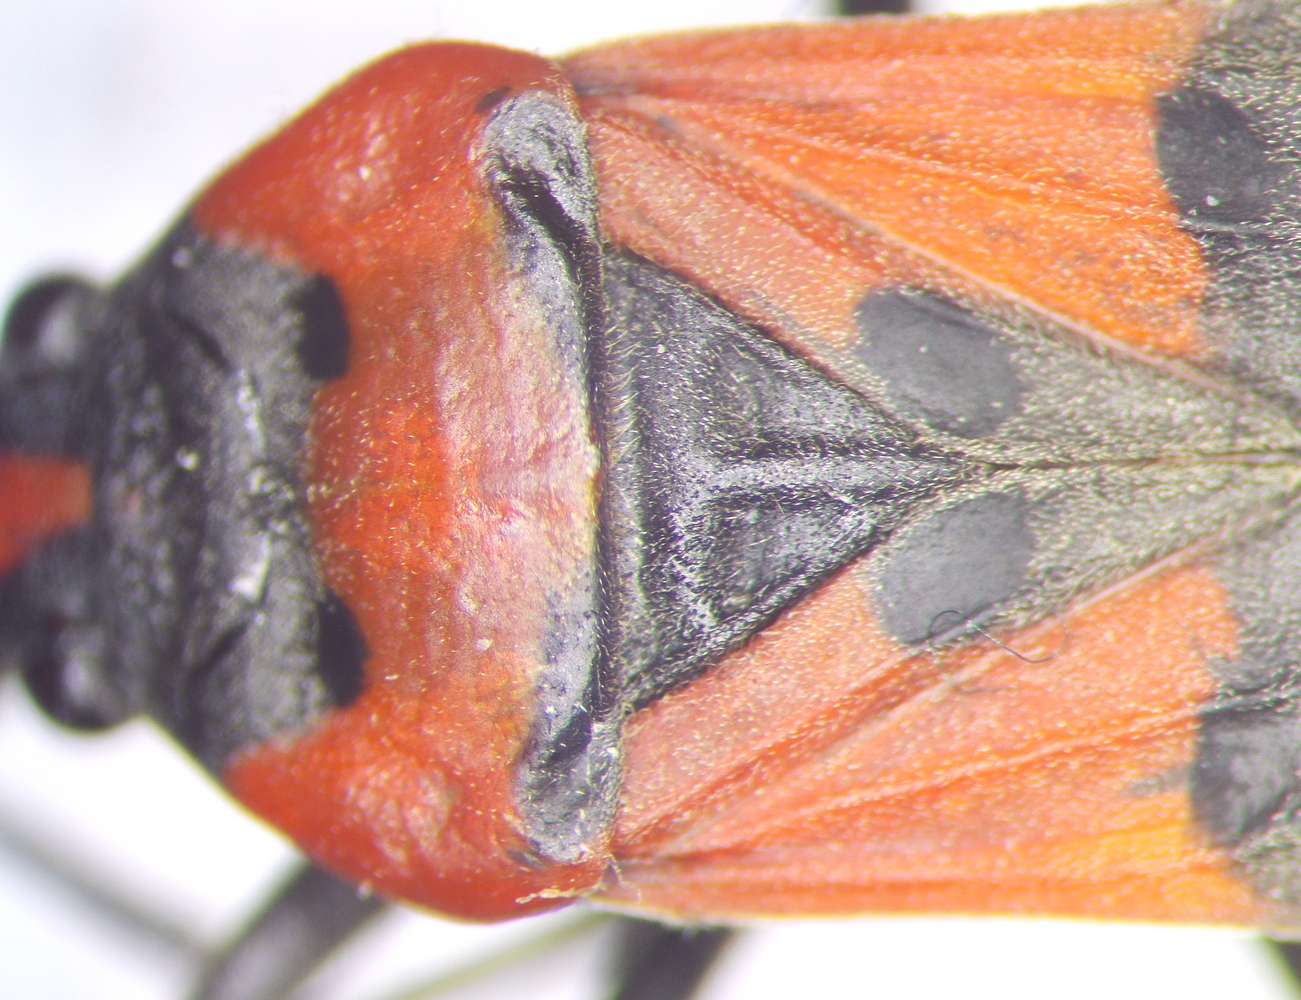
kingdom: Animalia
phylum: Arthropoda
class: Insecta
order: Hemiptera
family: Lygaeidae
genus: Lygaeus
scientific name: Lygaeus simulans
